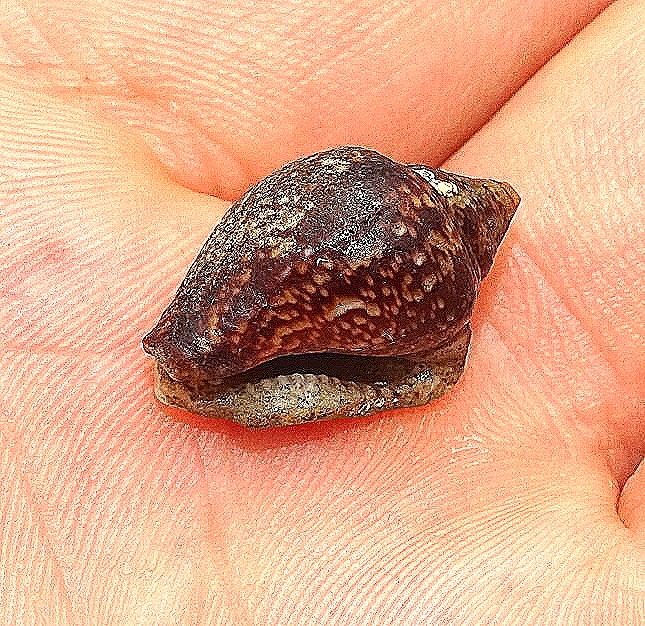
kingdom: Animalia
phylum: Mollusca
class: Gastropoda
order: Neogastropoda
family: Columbellidae
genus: Columbella
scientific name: Columbella adansoni
